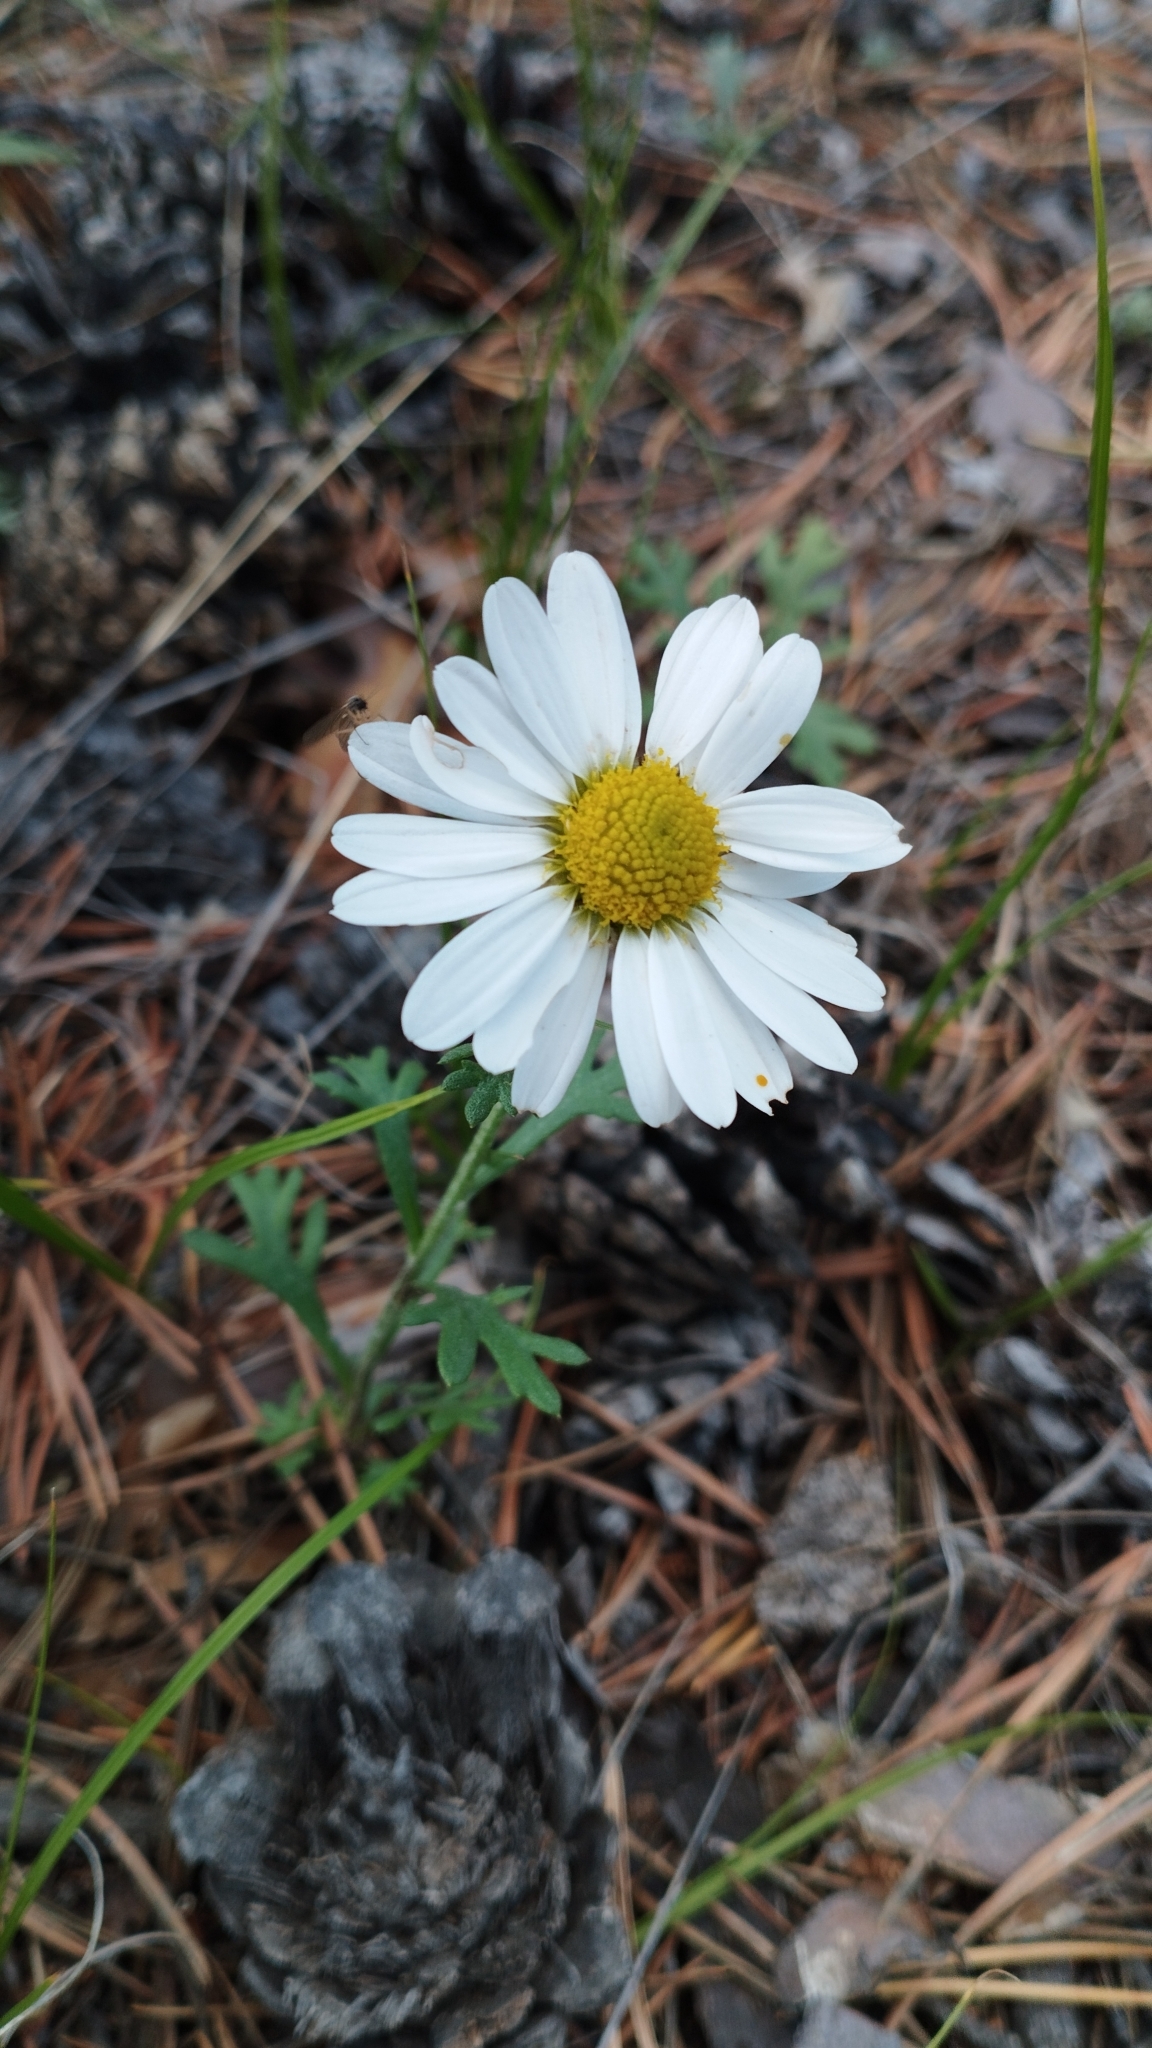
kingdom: Plantae
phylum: Tracheophyta
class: Magnoliopsida
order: Asterales
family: Asteraceae
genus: Chrysanthemum
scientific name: Chrysanthemum zawadzkii
